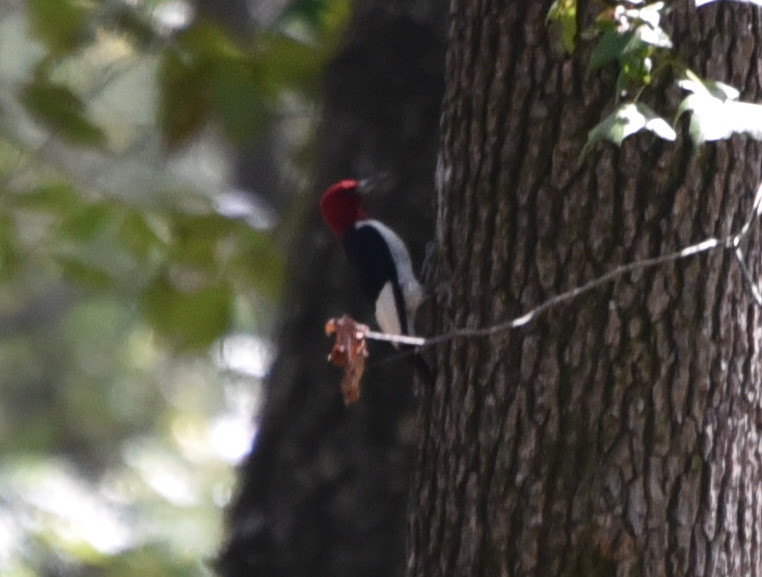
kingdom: Animalia
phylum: Chordata
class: Aves
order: Piciformes
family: Picidae
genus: Melanerpes
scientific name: Melanerpes erythrocephalus
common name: Red-headed woodpecker
